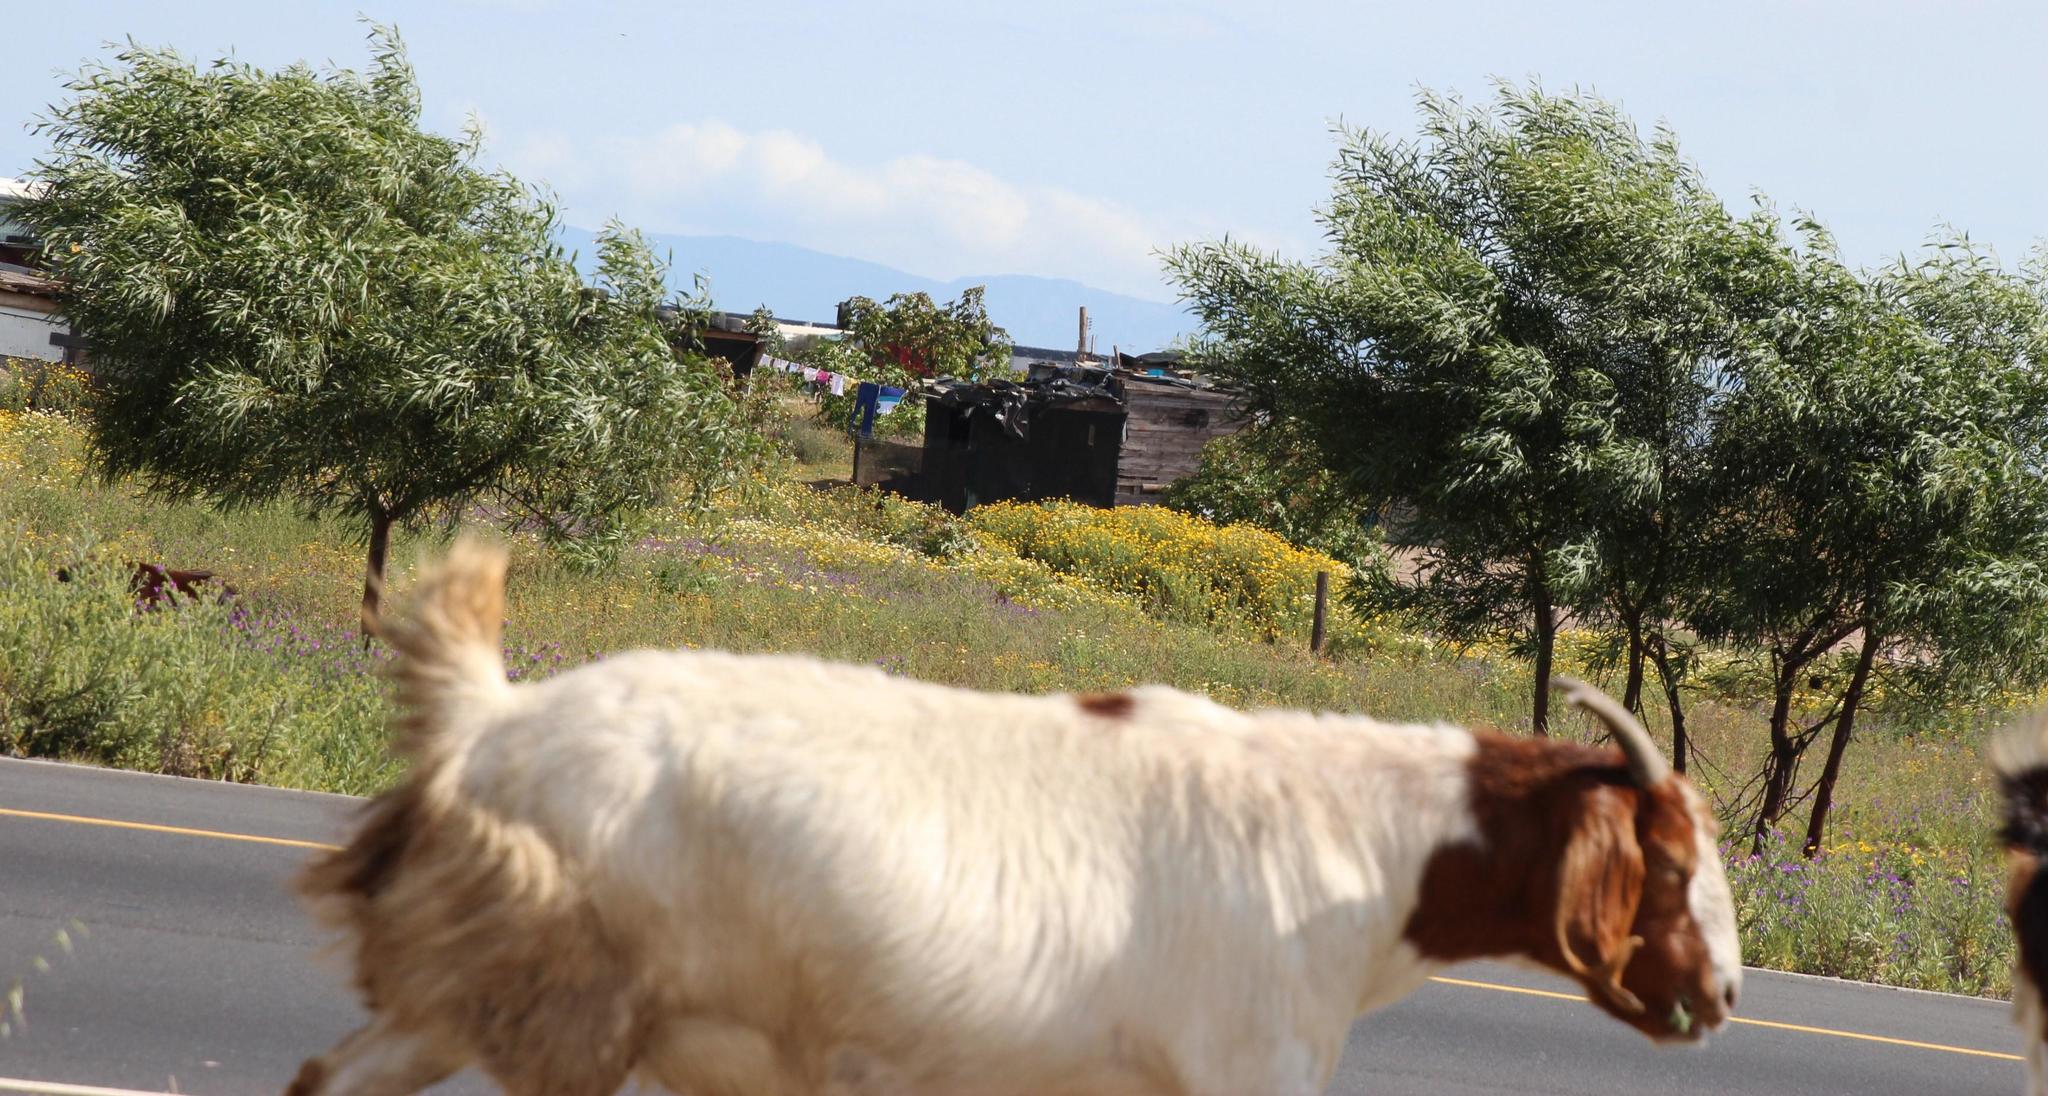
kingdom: Animalia
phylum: Chordata
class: Mammalia
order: Artiodactyla
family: Bovidae
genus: Capra
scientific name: Capra hircus
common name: Domestic goat
